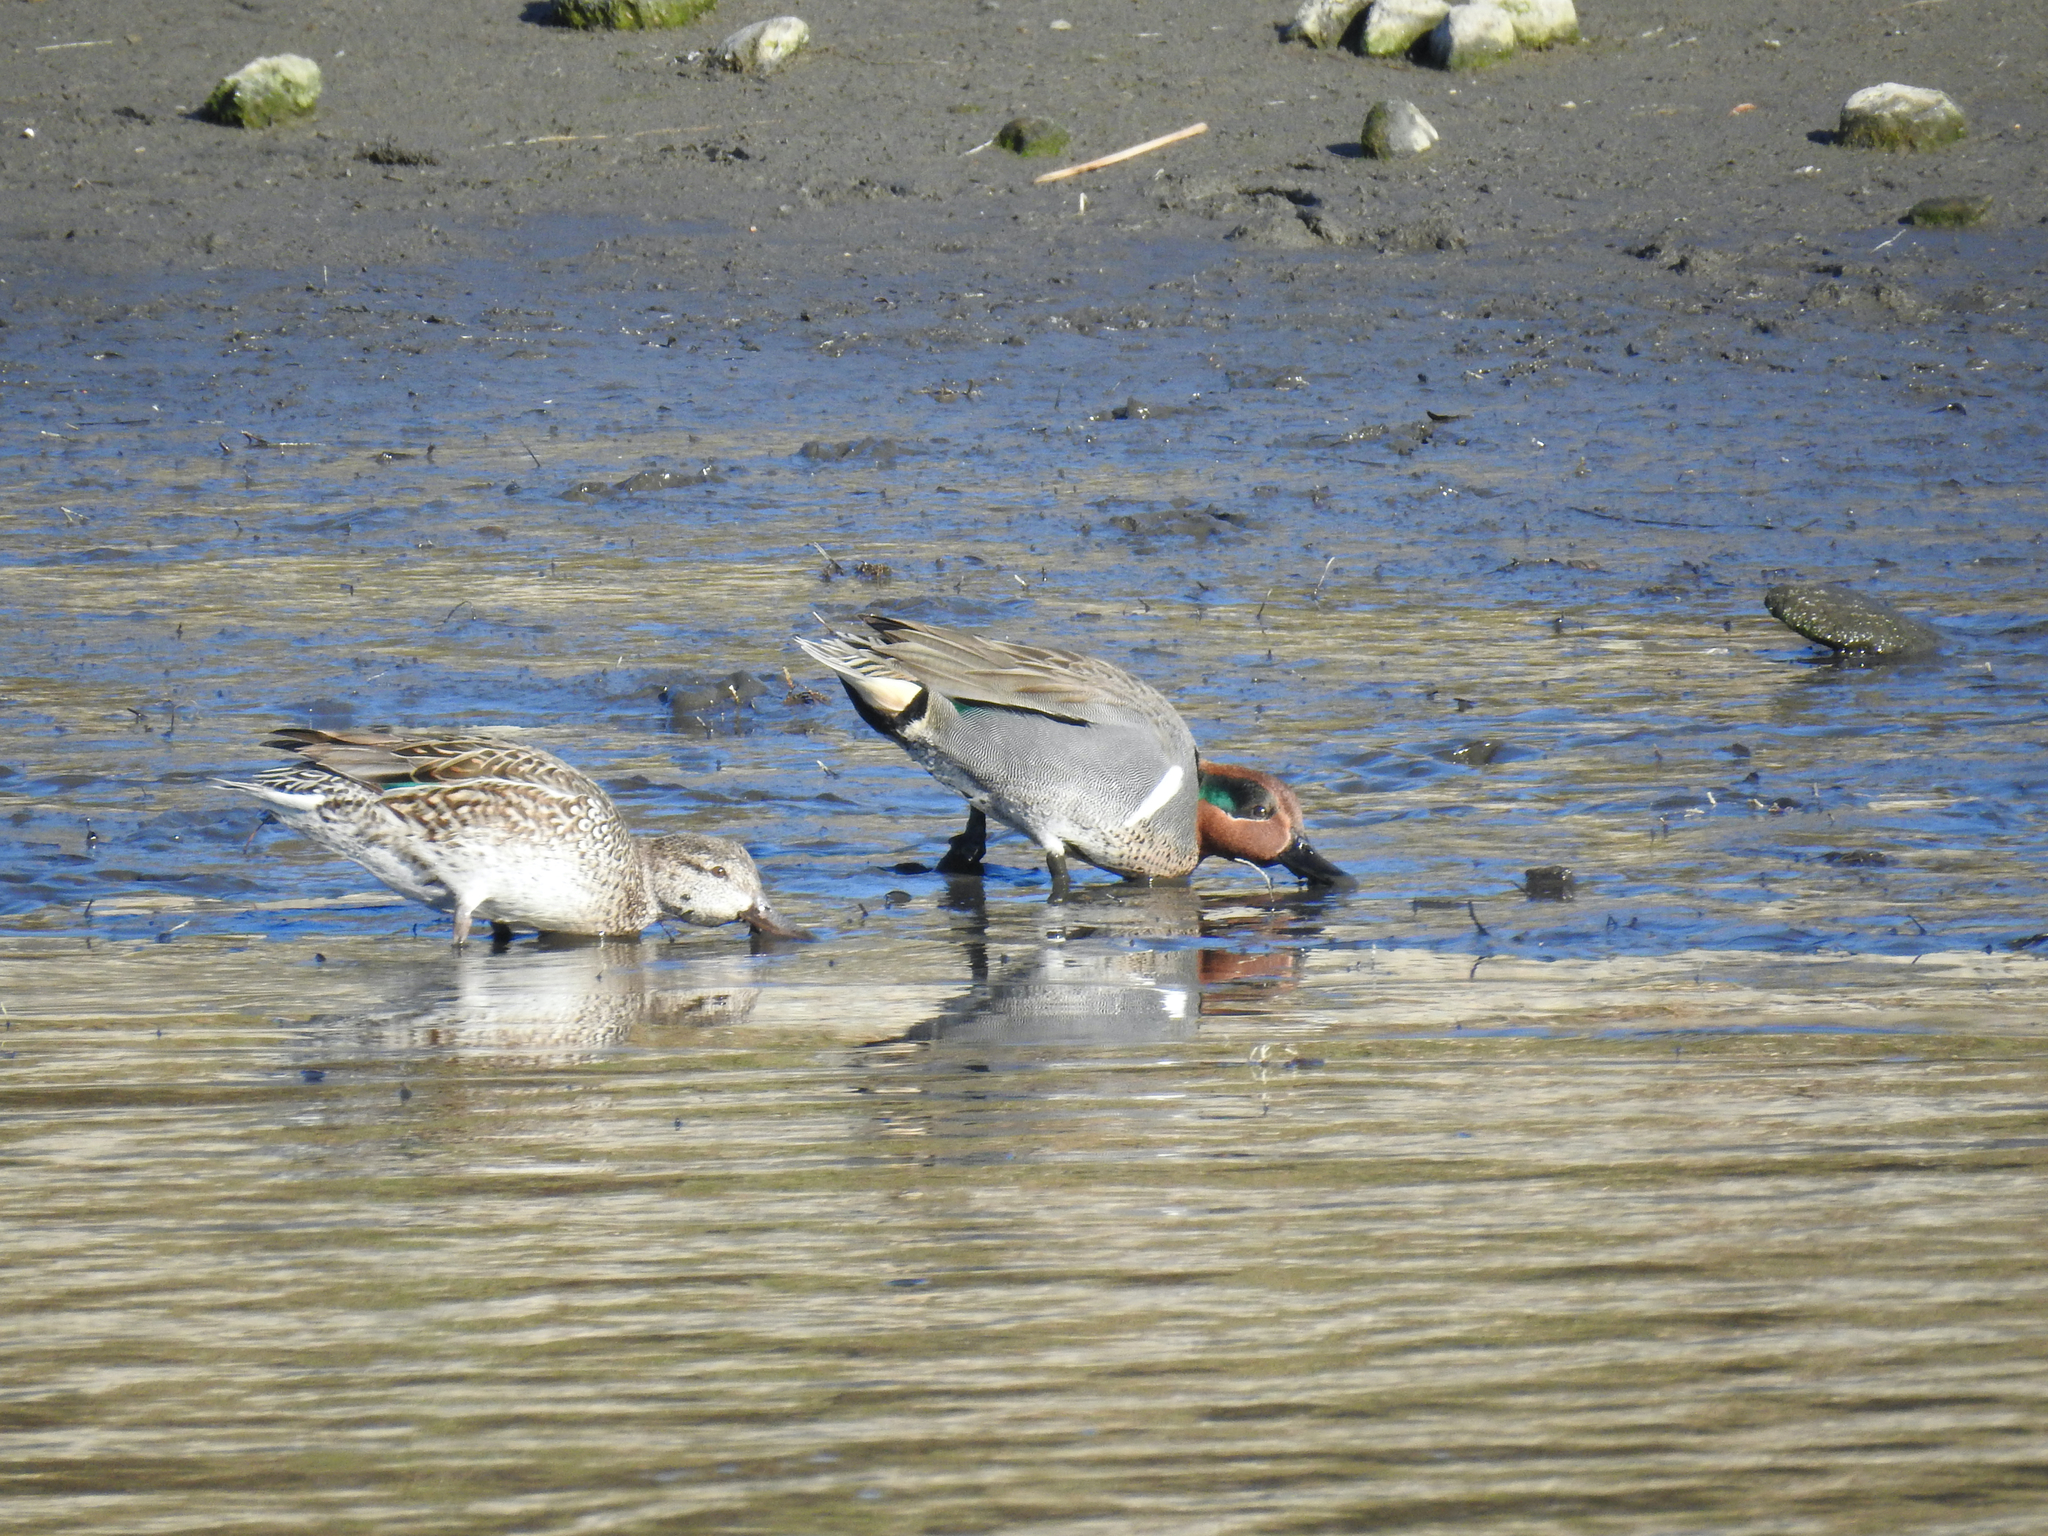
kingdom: Animalia
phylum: Chordata
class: Aves
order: Anseriformes
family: Anatidae
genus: Anas
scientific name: Anas crecca
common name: Eurasian teal
